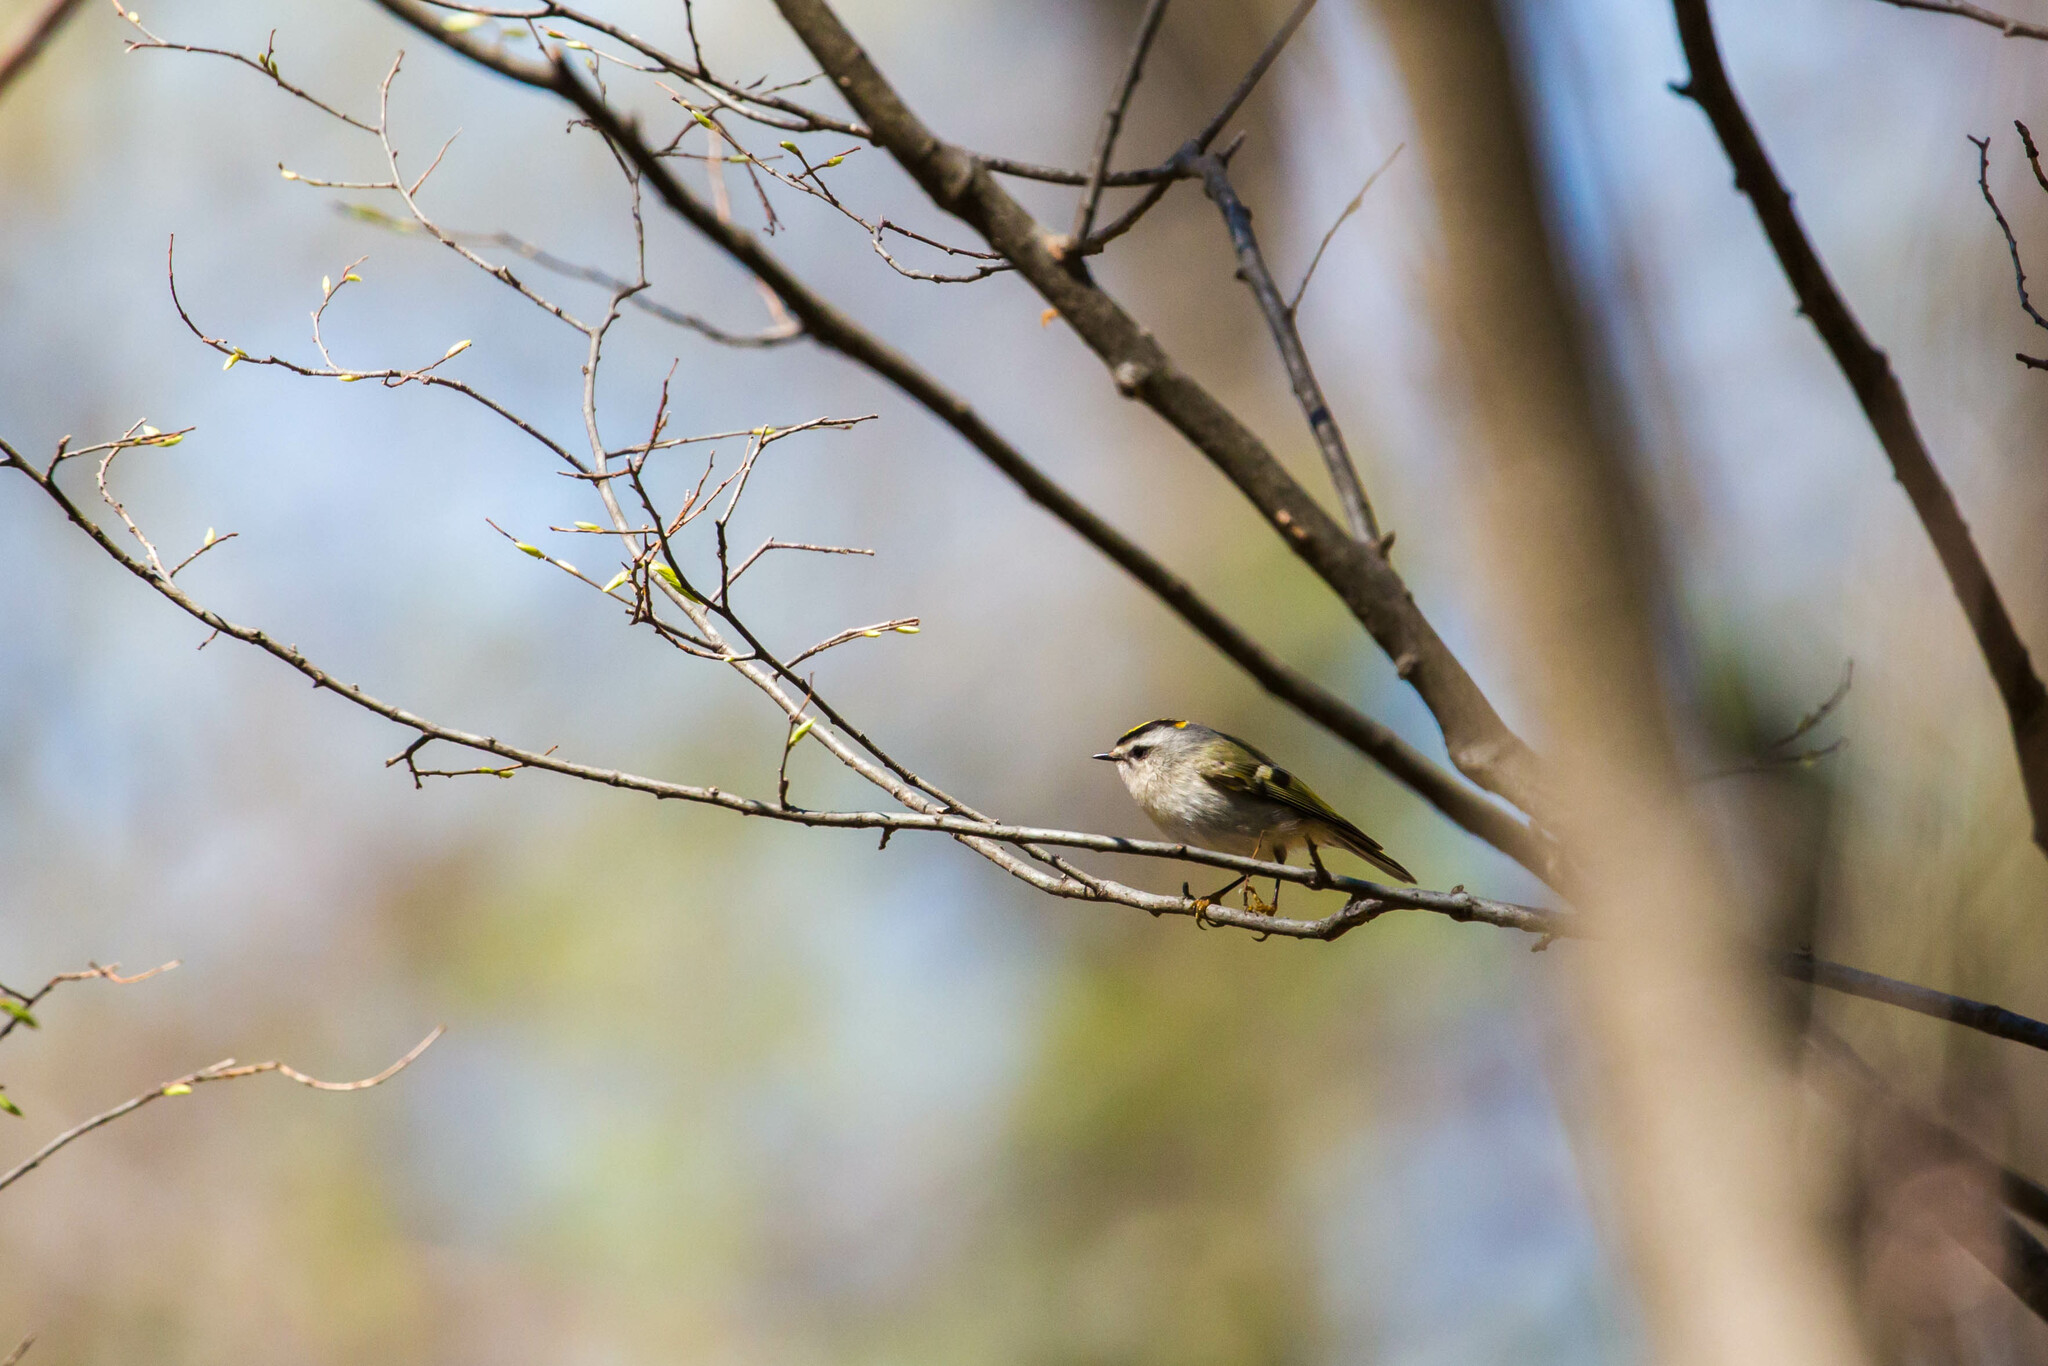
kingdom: Animalia
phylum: Chordata
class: Aves
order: Passeriformes
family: Regulidae
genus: Regulus
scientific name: Regulus satrapa
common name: Golden-crowned kinglet
